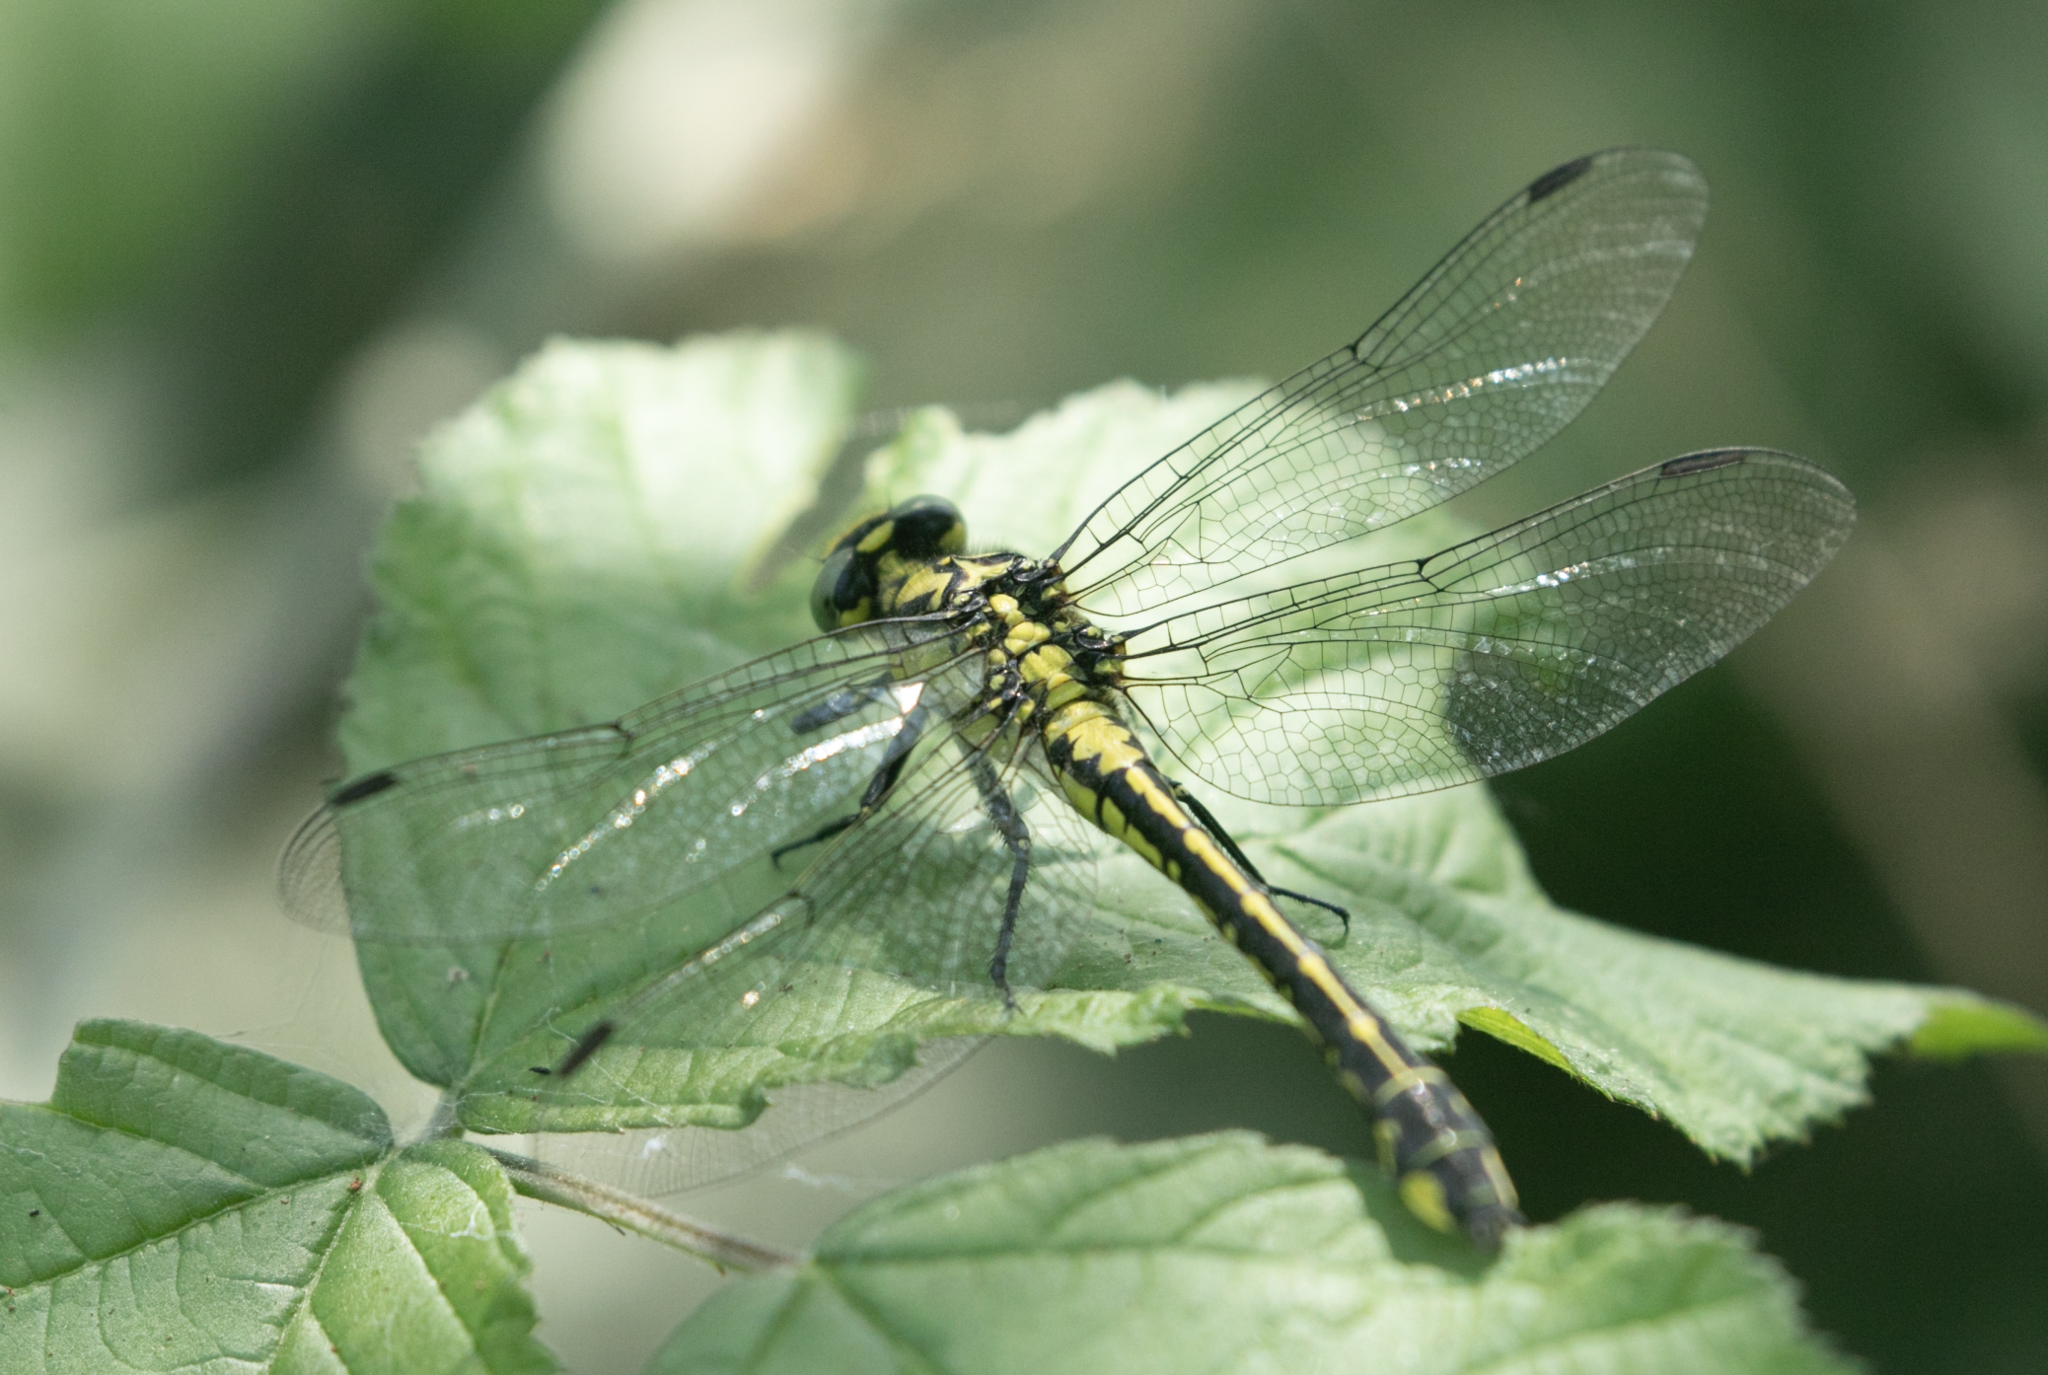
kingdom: Animalia
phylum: Arthropoda
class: Insecta
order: Odonata
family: Gomphidae
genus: Gomphus
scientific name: Gomphus vulgatissimus
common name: Club-tailed dragonfly
